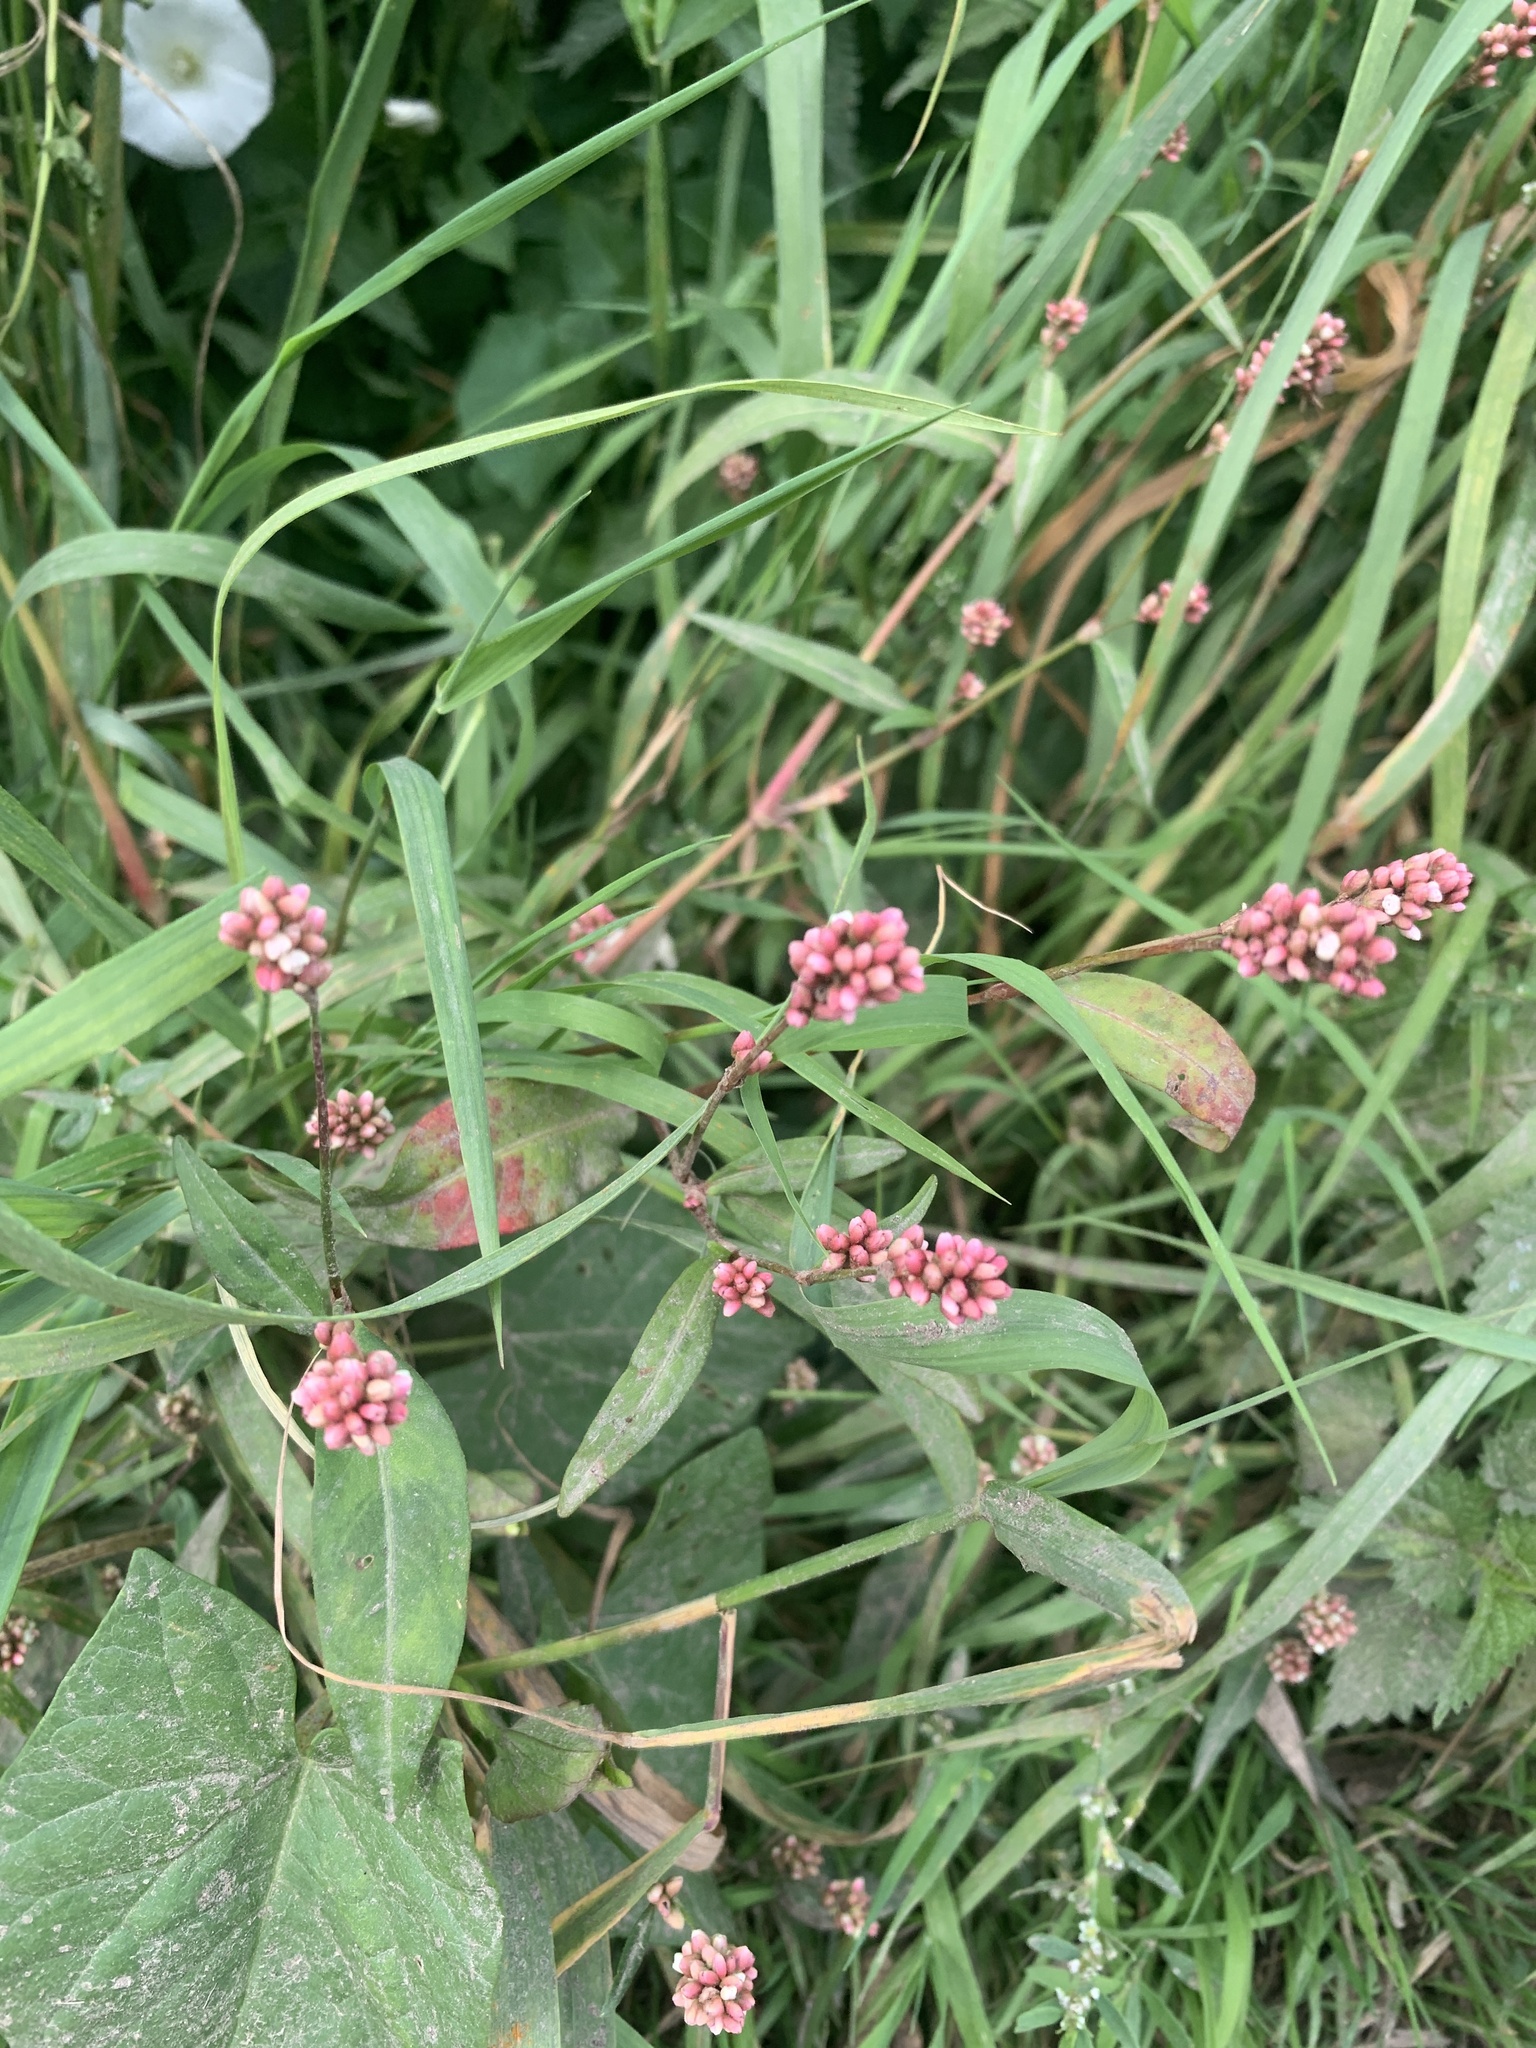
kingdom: Plantae
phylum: Tracheophyta
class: Magnoliopsida
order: Caryophyllales
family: Polygonaceae
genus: Persicaria
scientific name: Persicaria maculosa
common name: Redshank
